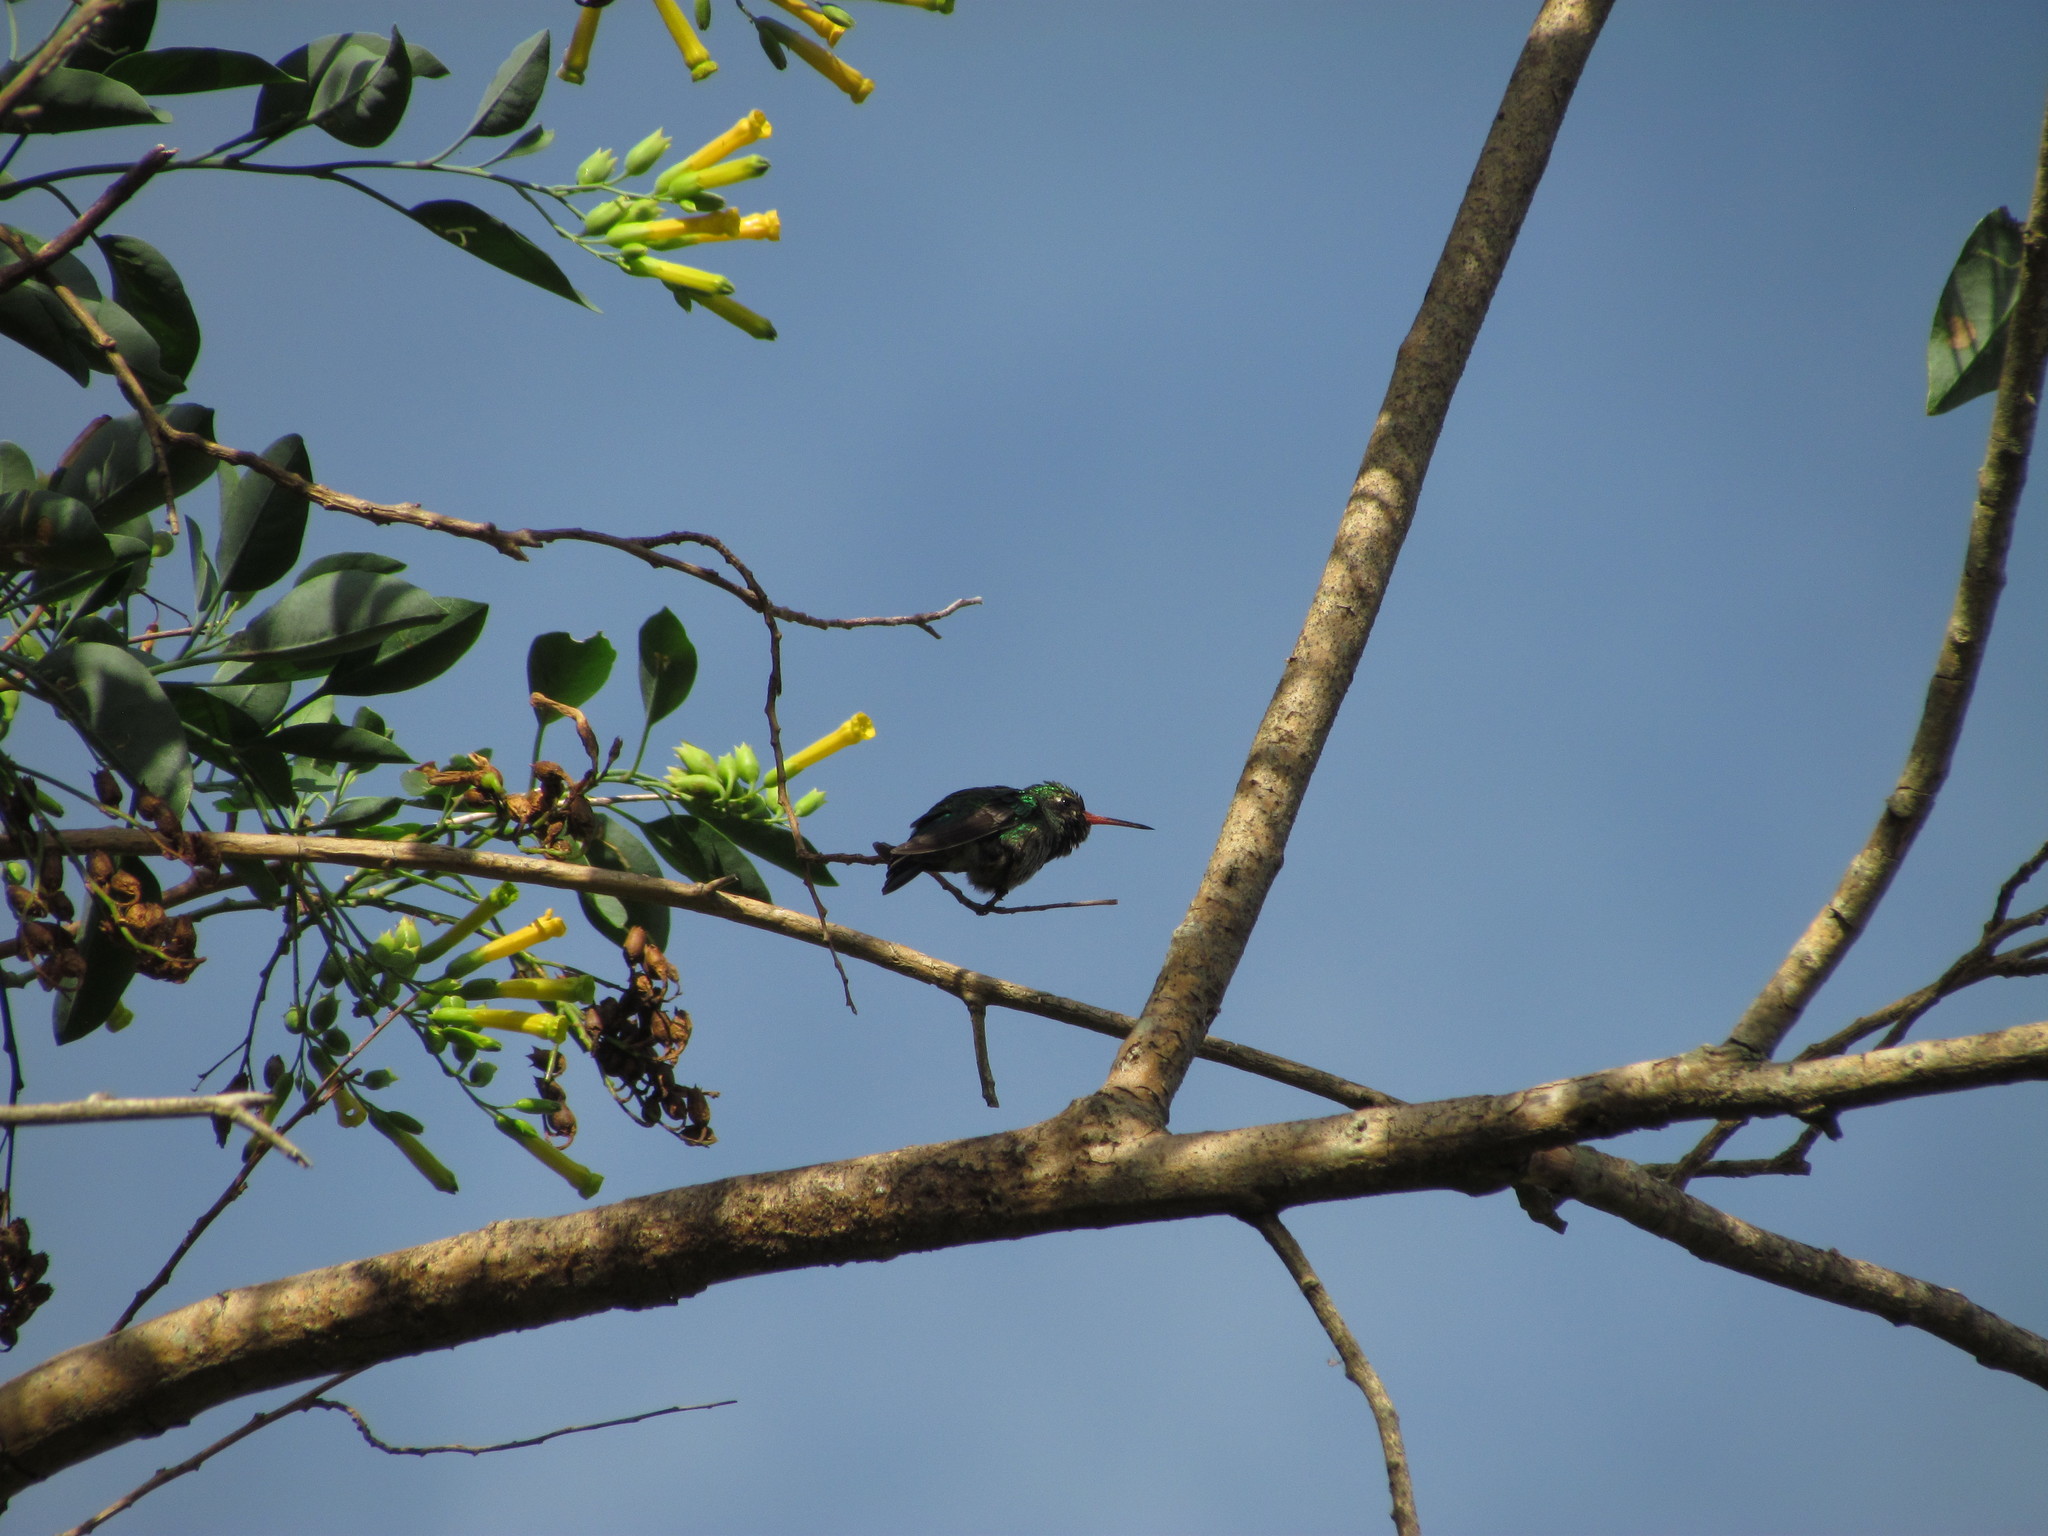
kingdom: Animalia
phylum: Chordata
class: Aves
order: Apodiformes
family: Trochilidae
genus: Chlorostilbon
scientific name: Chlorostilbon lucidus
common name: Glittering-bellied emerald
